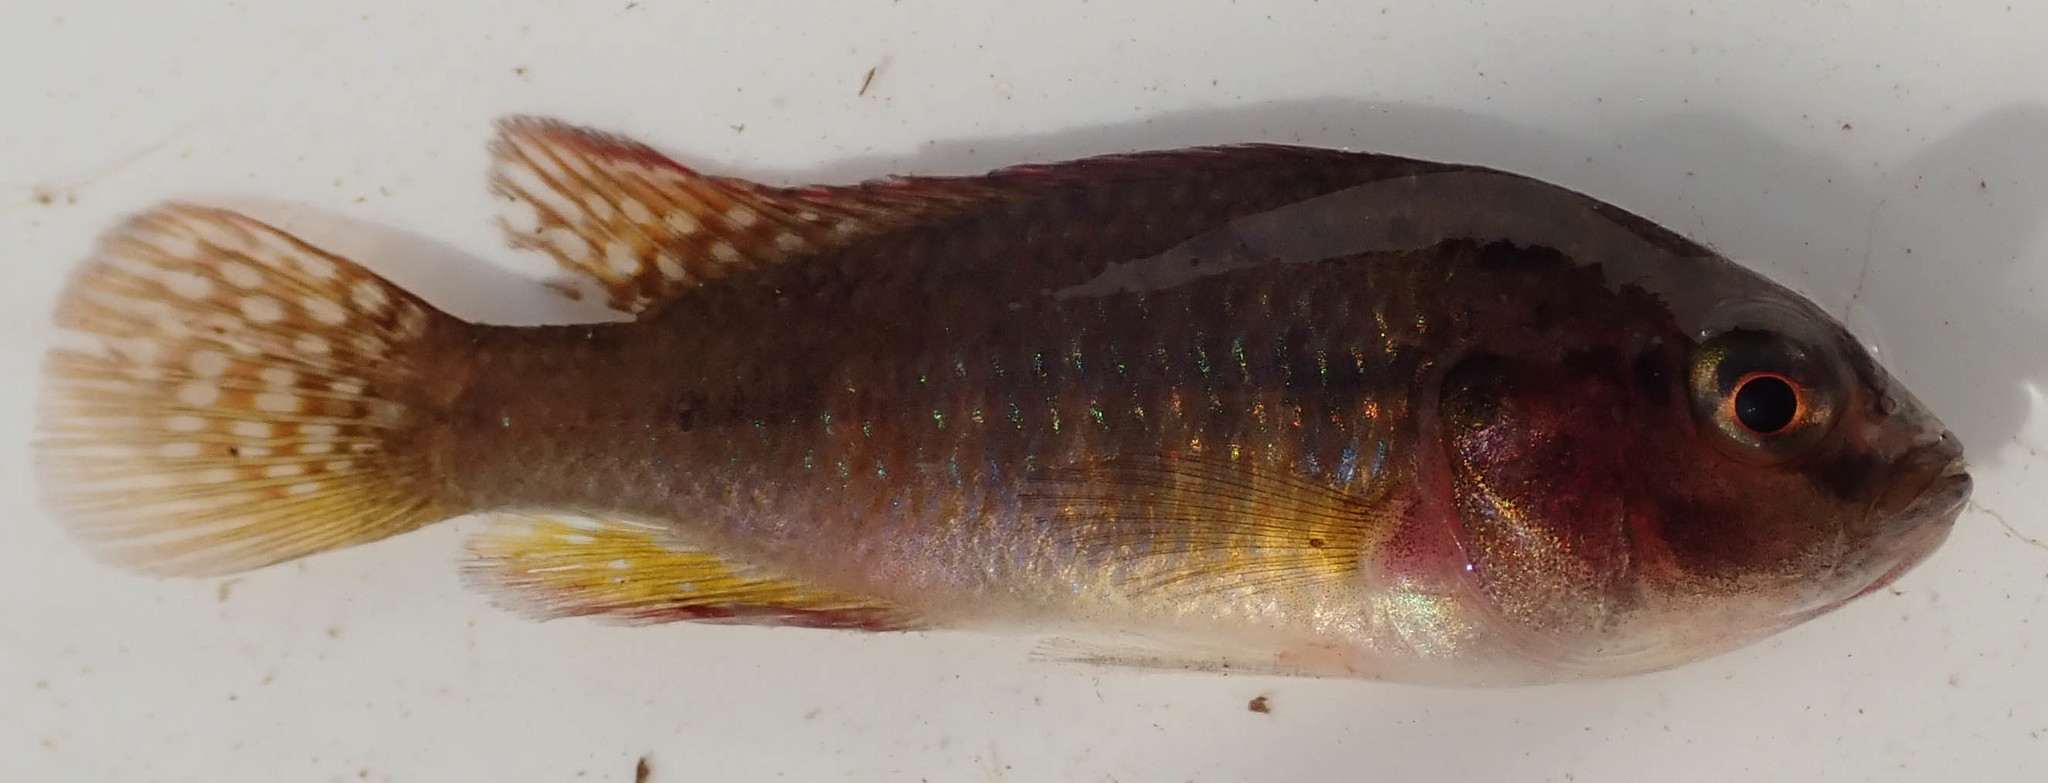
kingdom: Animalia
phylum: Chordata
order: Perciformes
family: Cichlidae
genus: Pseudocrenilabrus
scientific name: Pseudocrenilabrus philander
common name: Southern mouthbrooder
